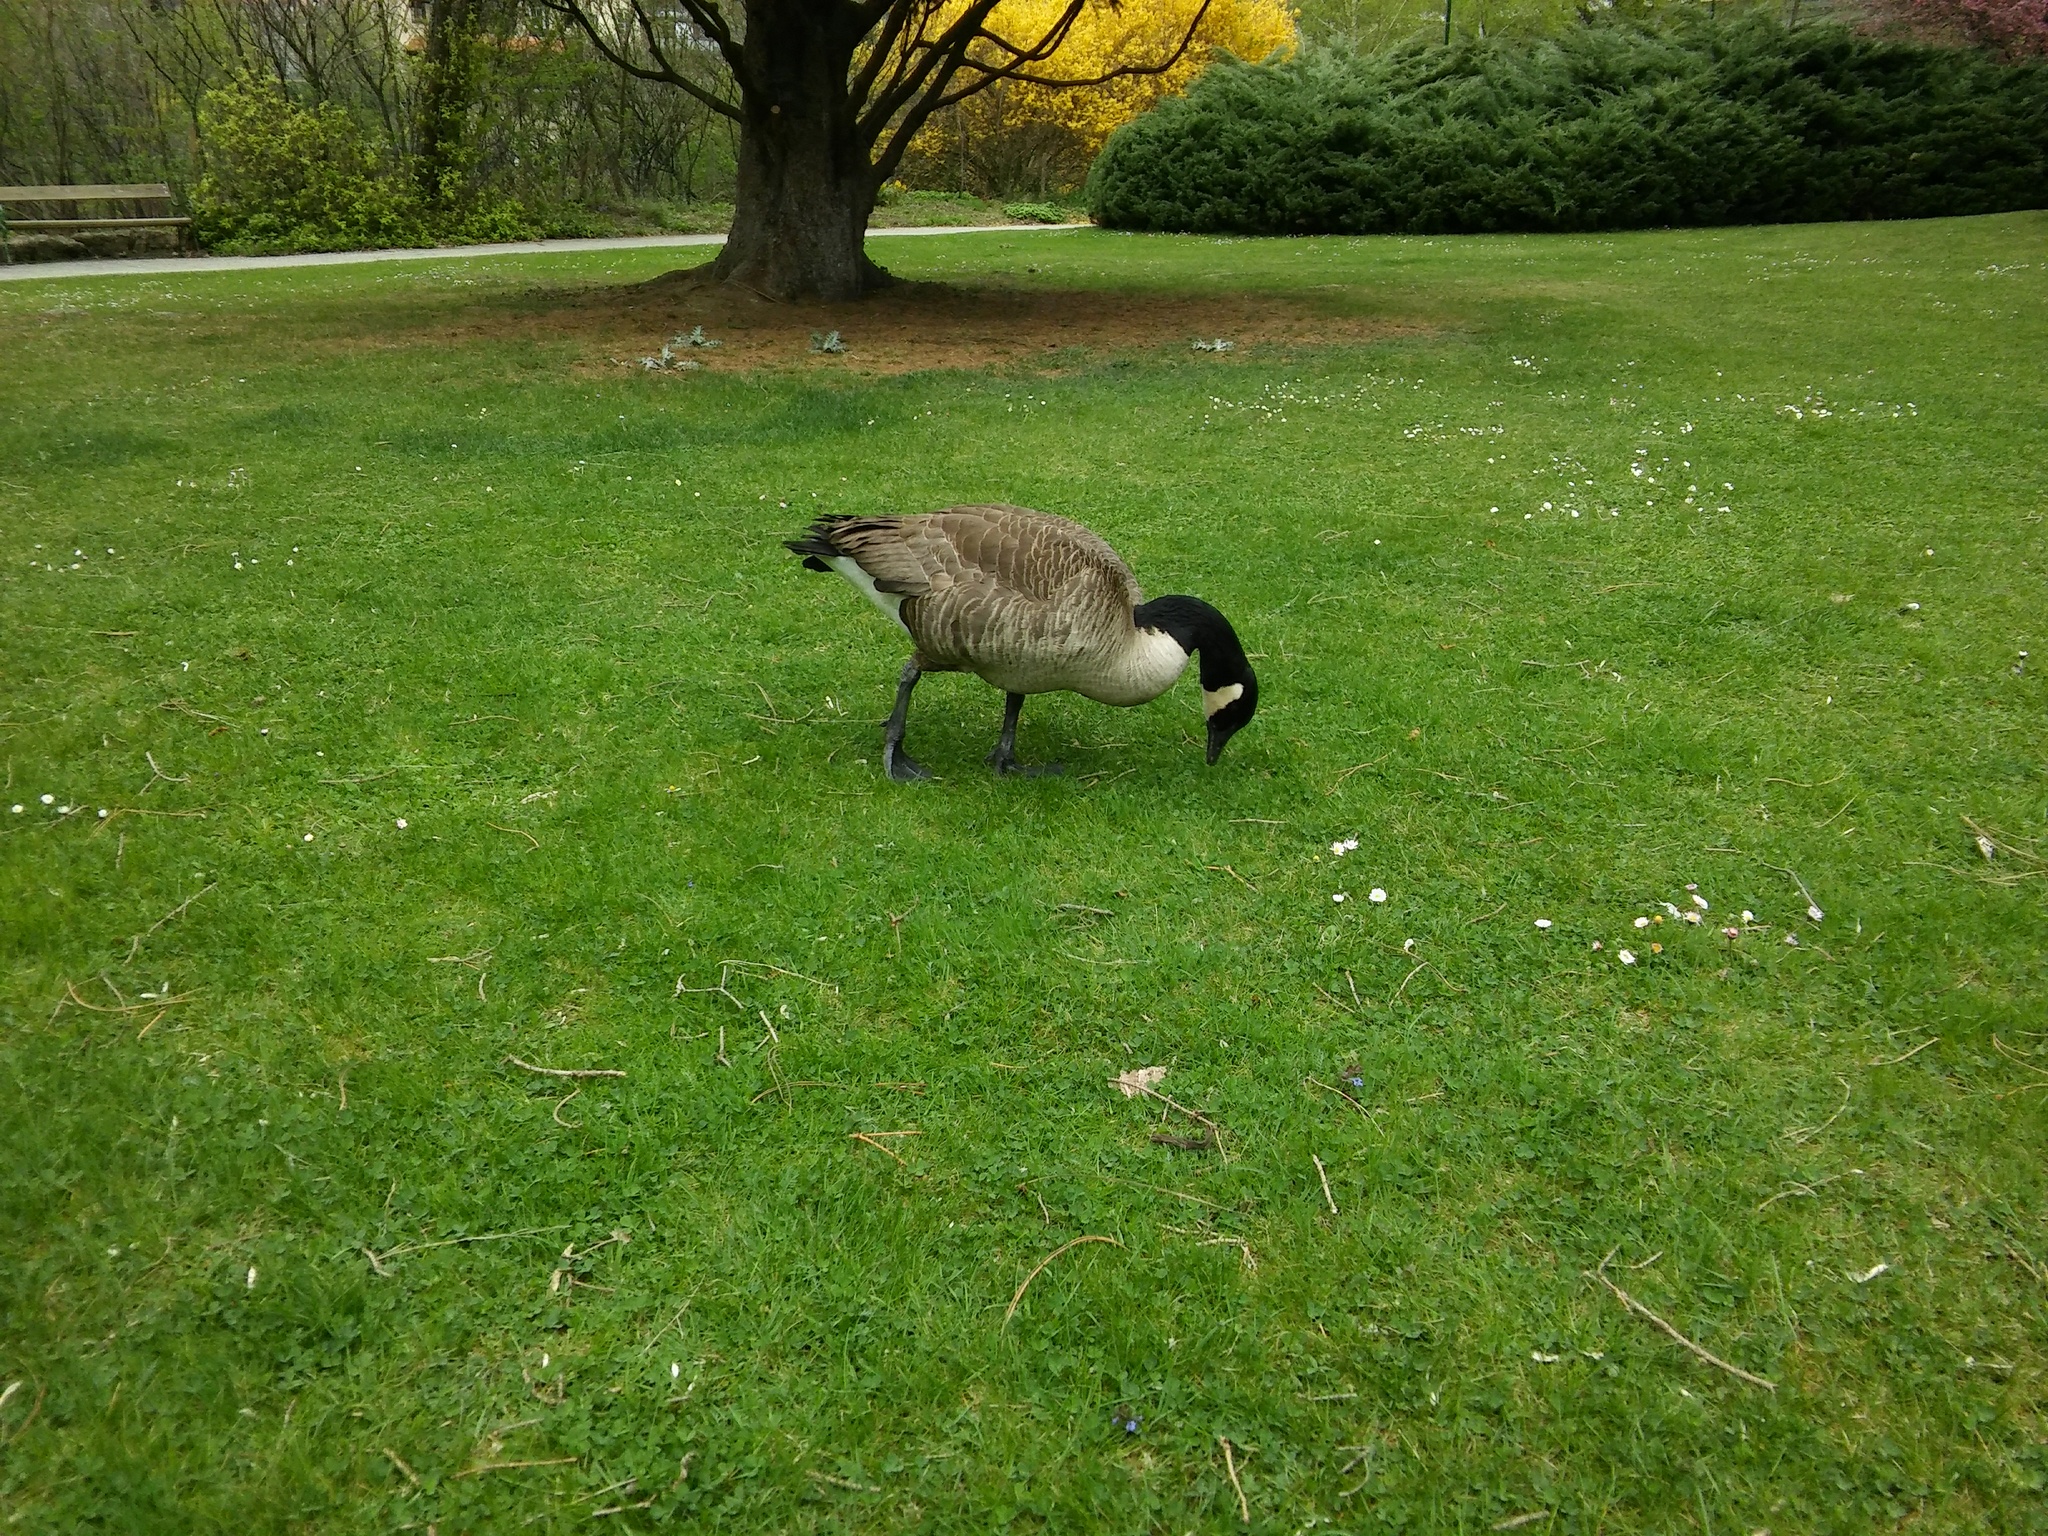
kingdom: Animalia
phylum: Chordata
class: Aves
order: Anseriformes
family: Anatidae
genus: Branta
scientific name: Branta canadensis
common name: Canada goose
